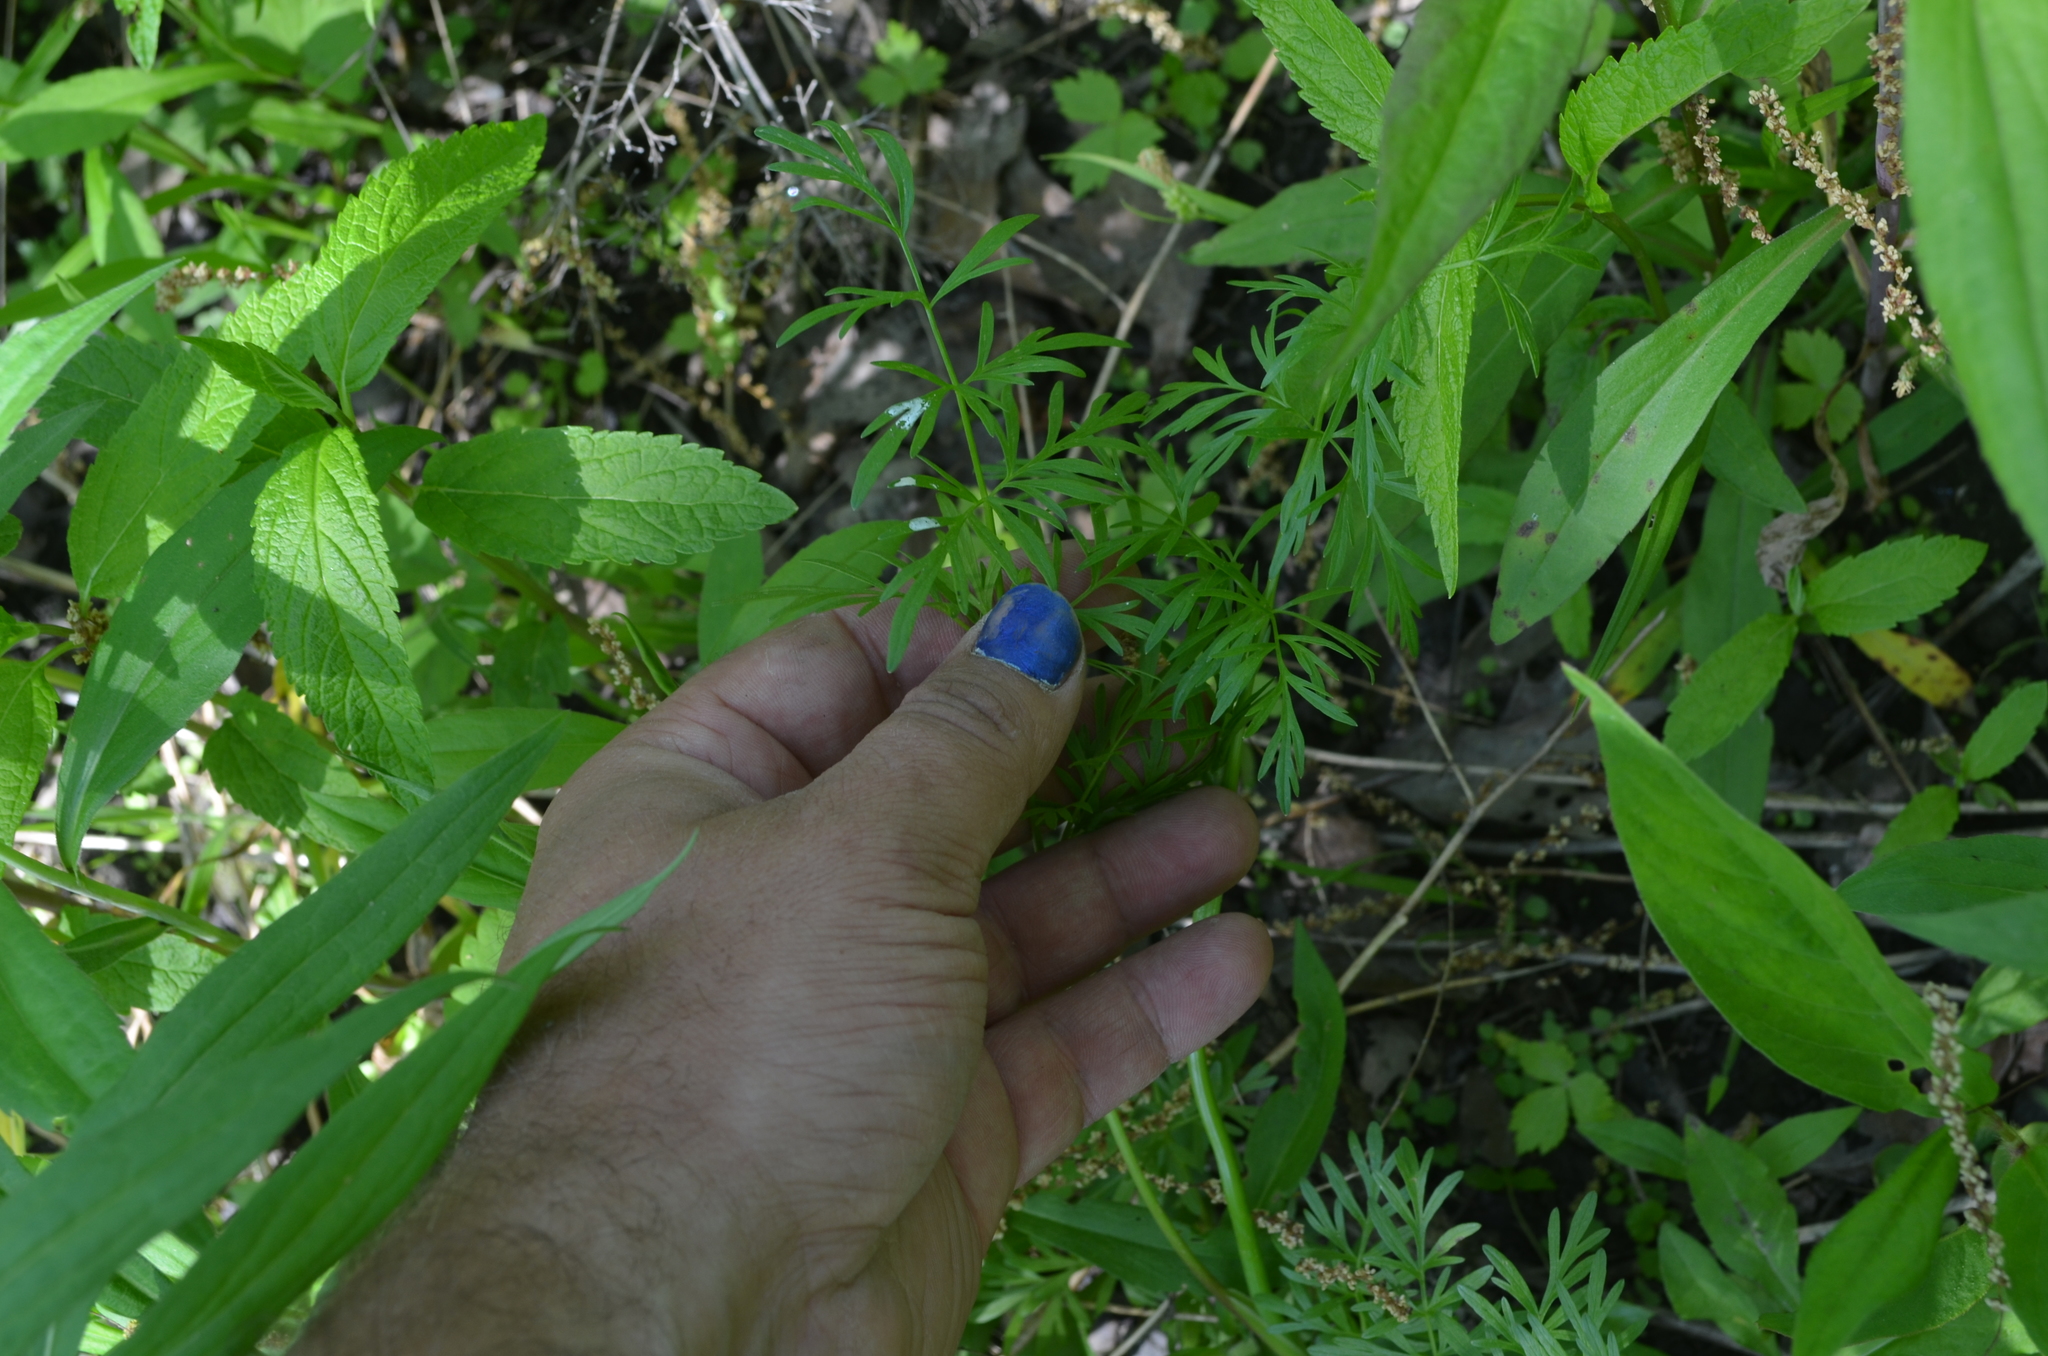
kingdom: Plantae
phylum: Tracheophyta
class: Magnoliopsida
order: Apiales
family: Apiaceae
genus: Perideridia
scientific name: Perideridia americana
